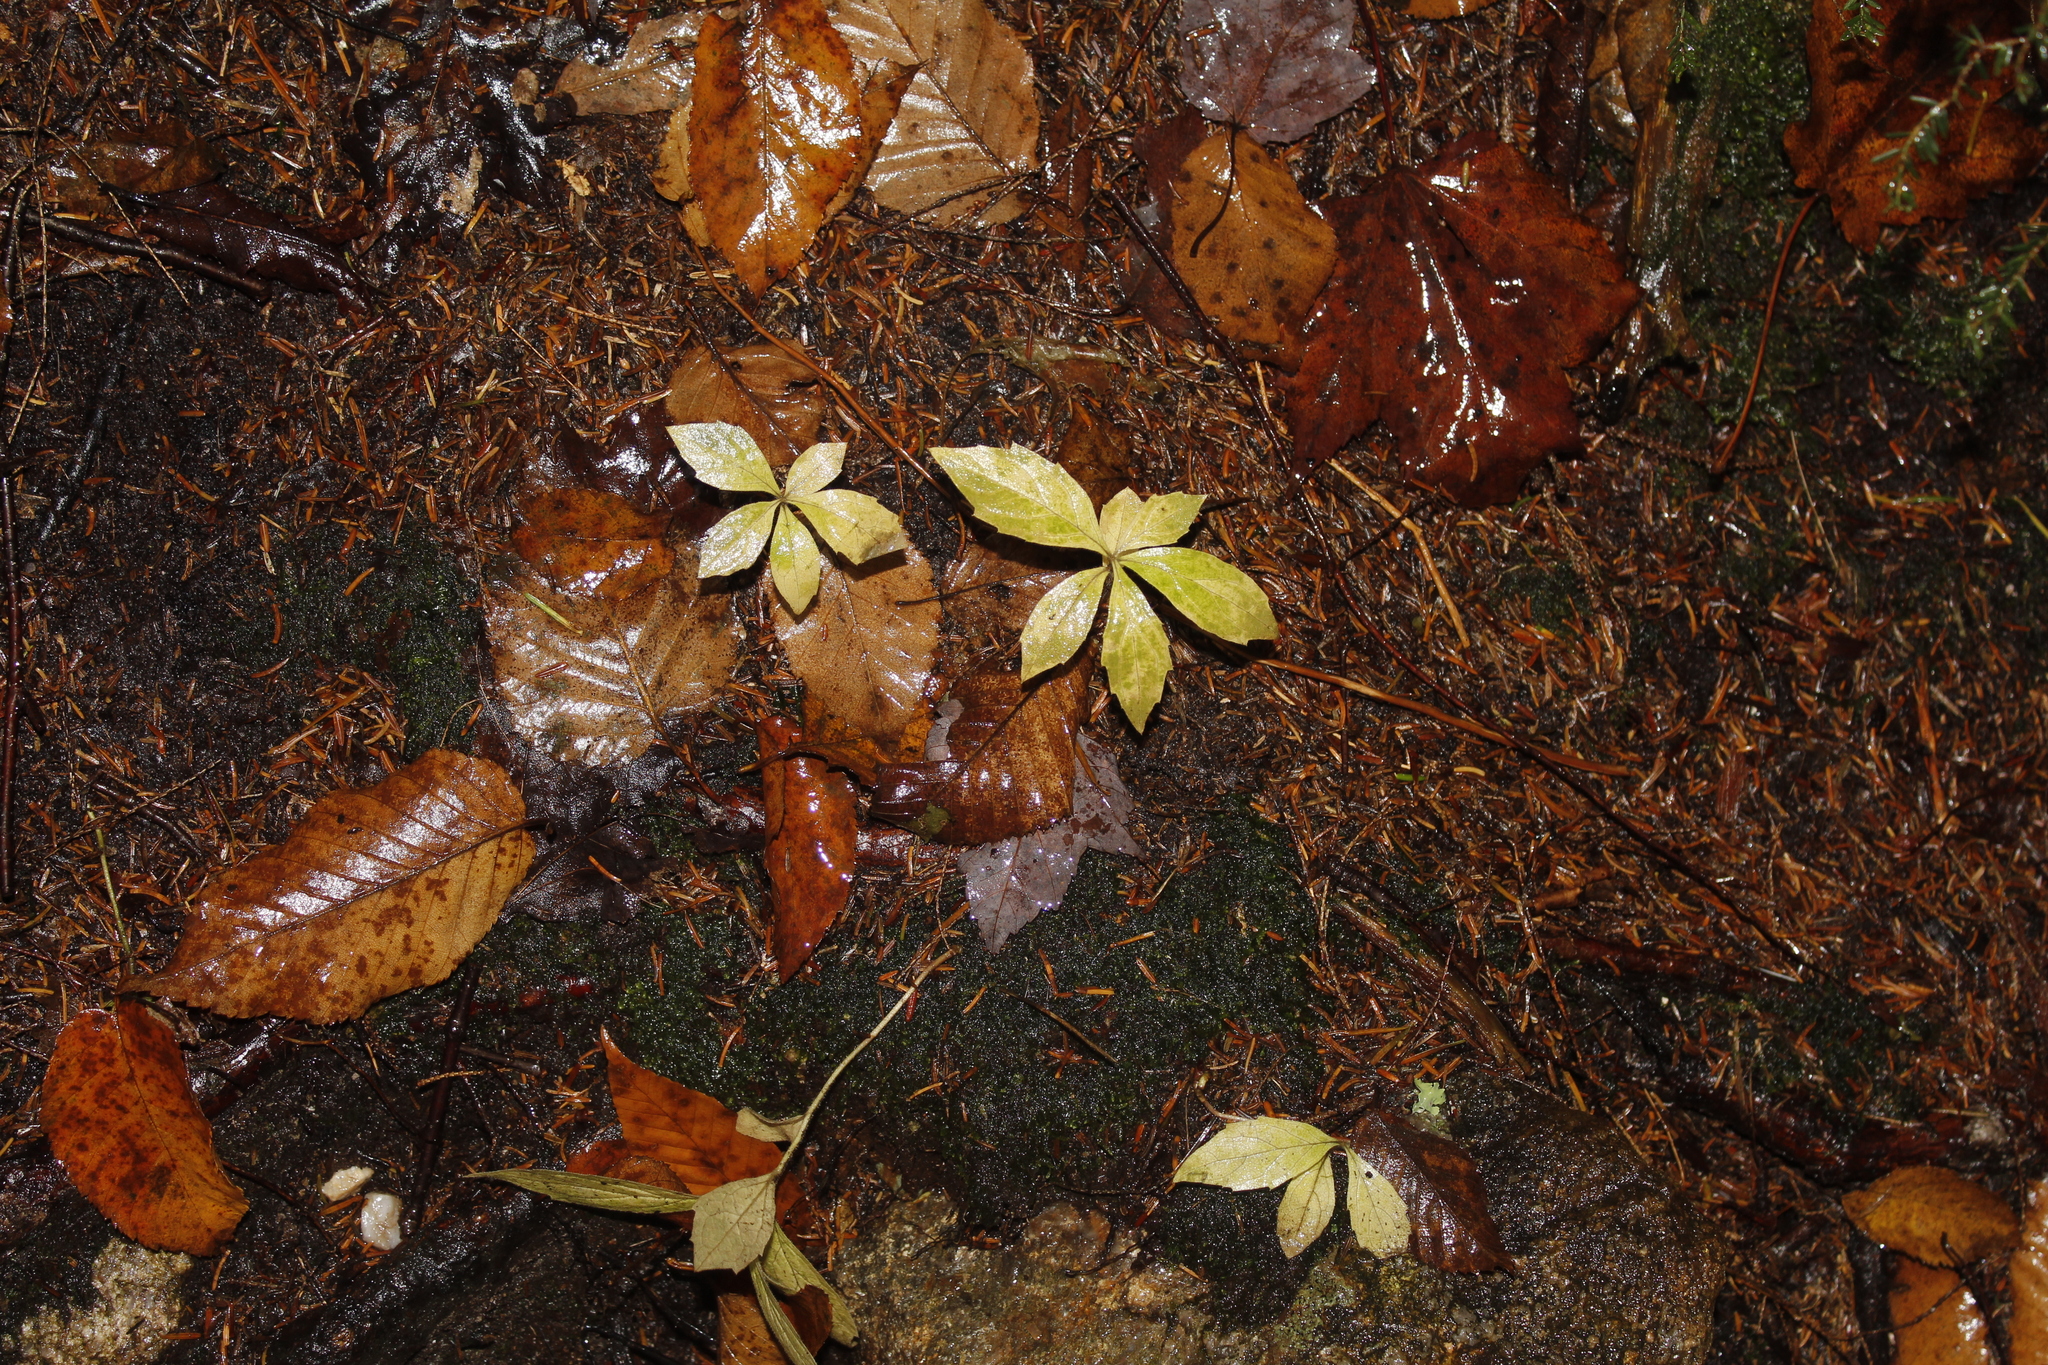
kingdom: Plantae
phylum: Tracheophyta
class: Magnoliopsida
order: Asterales
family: Asteraceae
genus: Oclemena
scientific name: Oclemena acuminata
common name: Mountain aster
